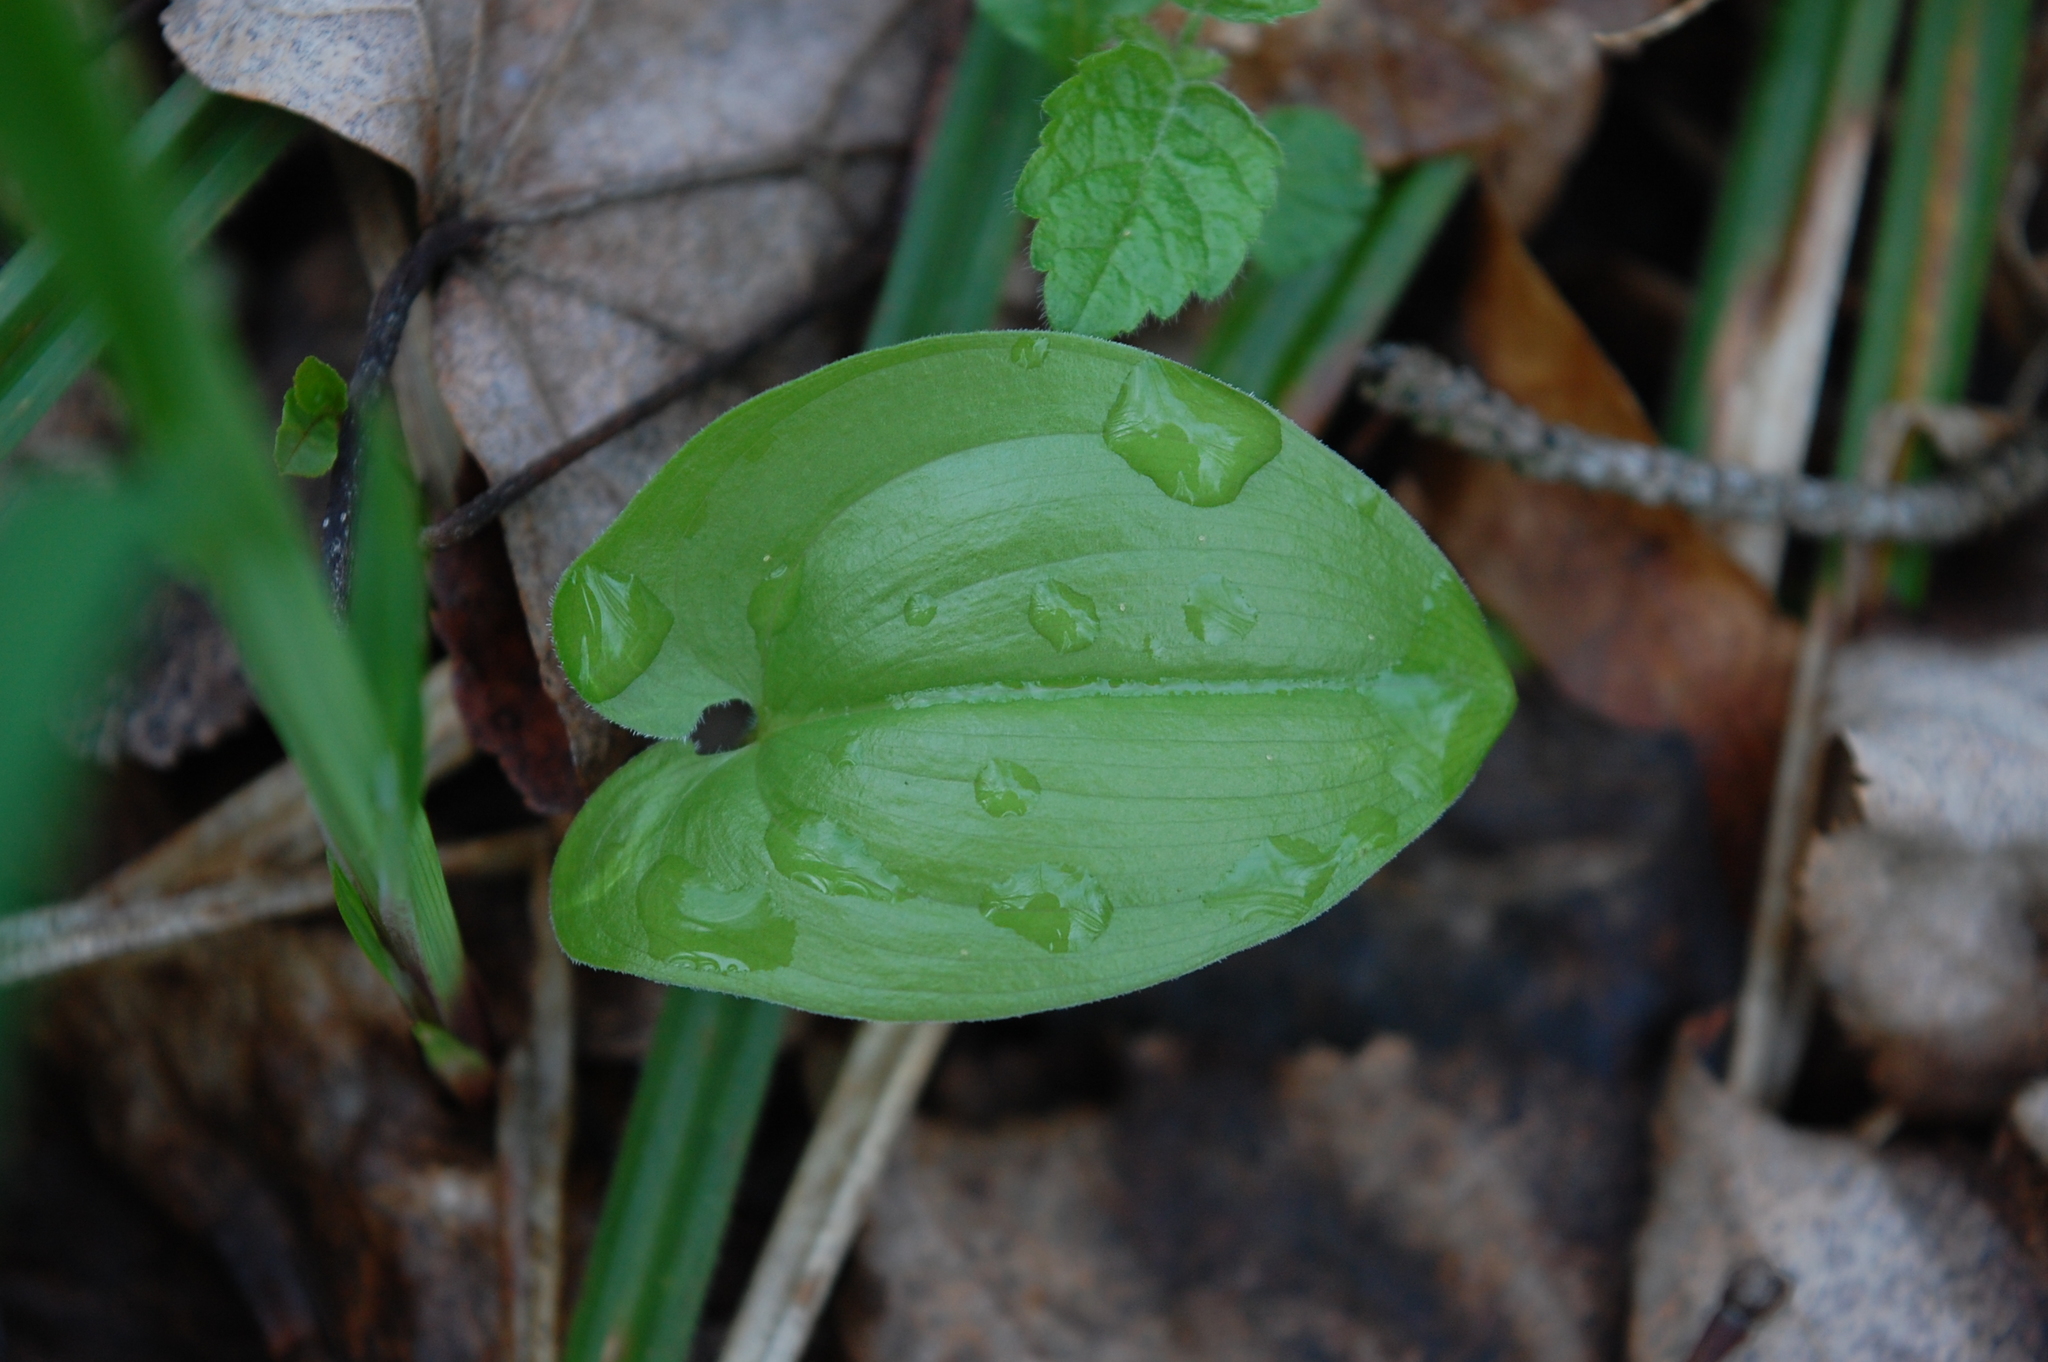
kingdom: Plantae
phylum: Tracheophyta
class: Liliopsida
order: Asparagales
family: Asparagaceae
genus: Maianthemum
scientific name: Maianthemum bifolium
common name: May lily
